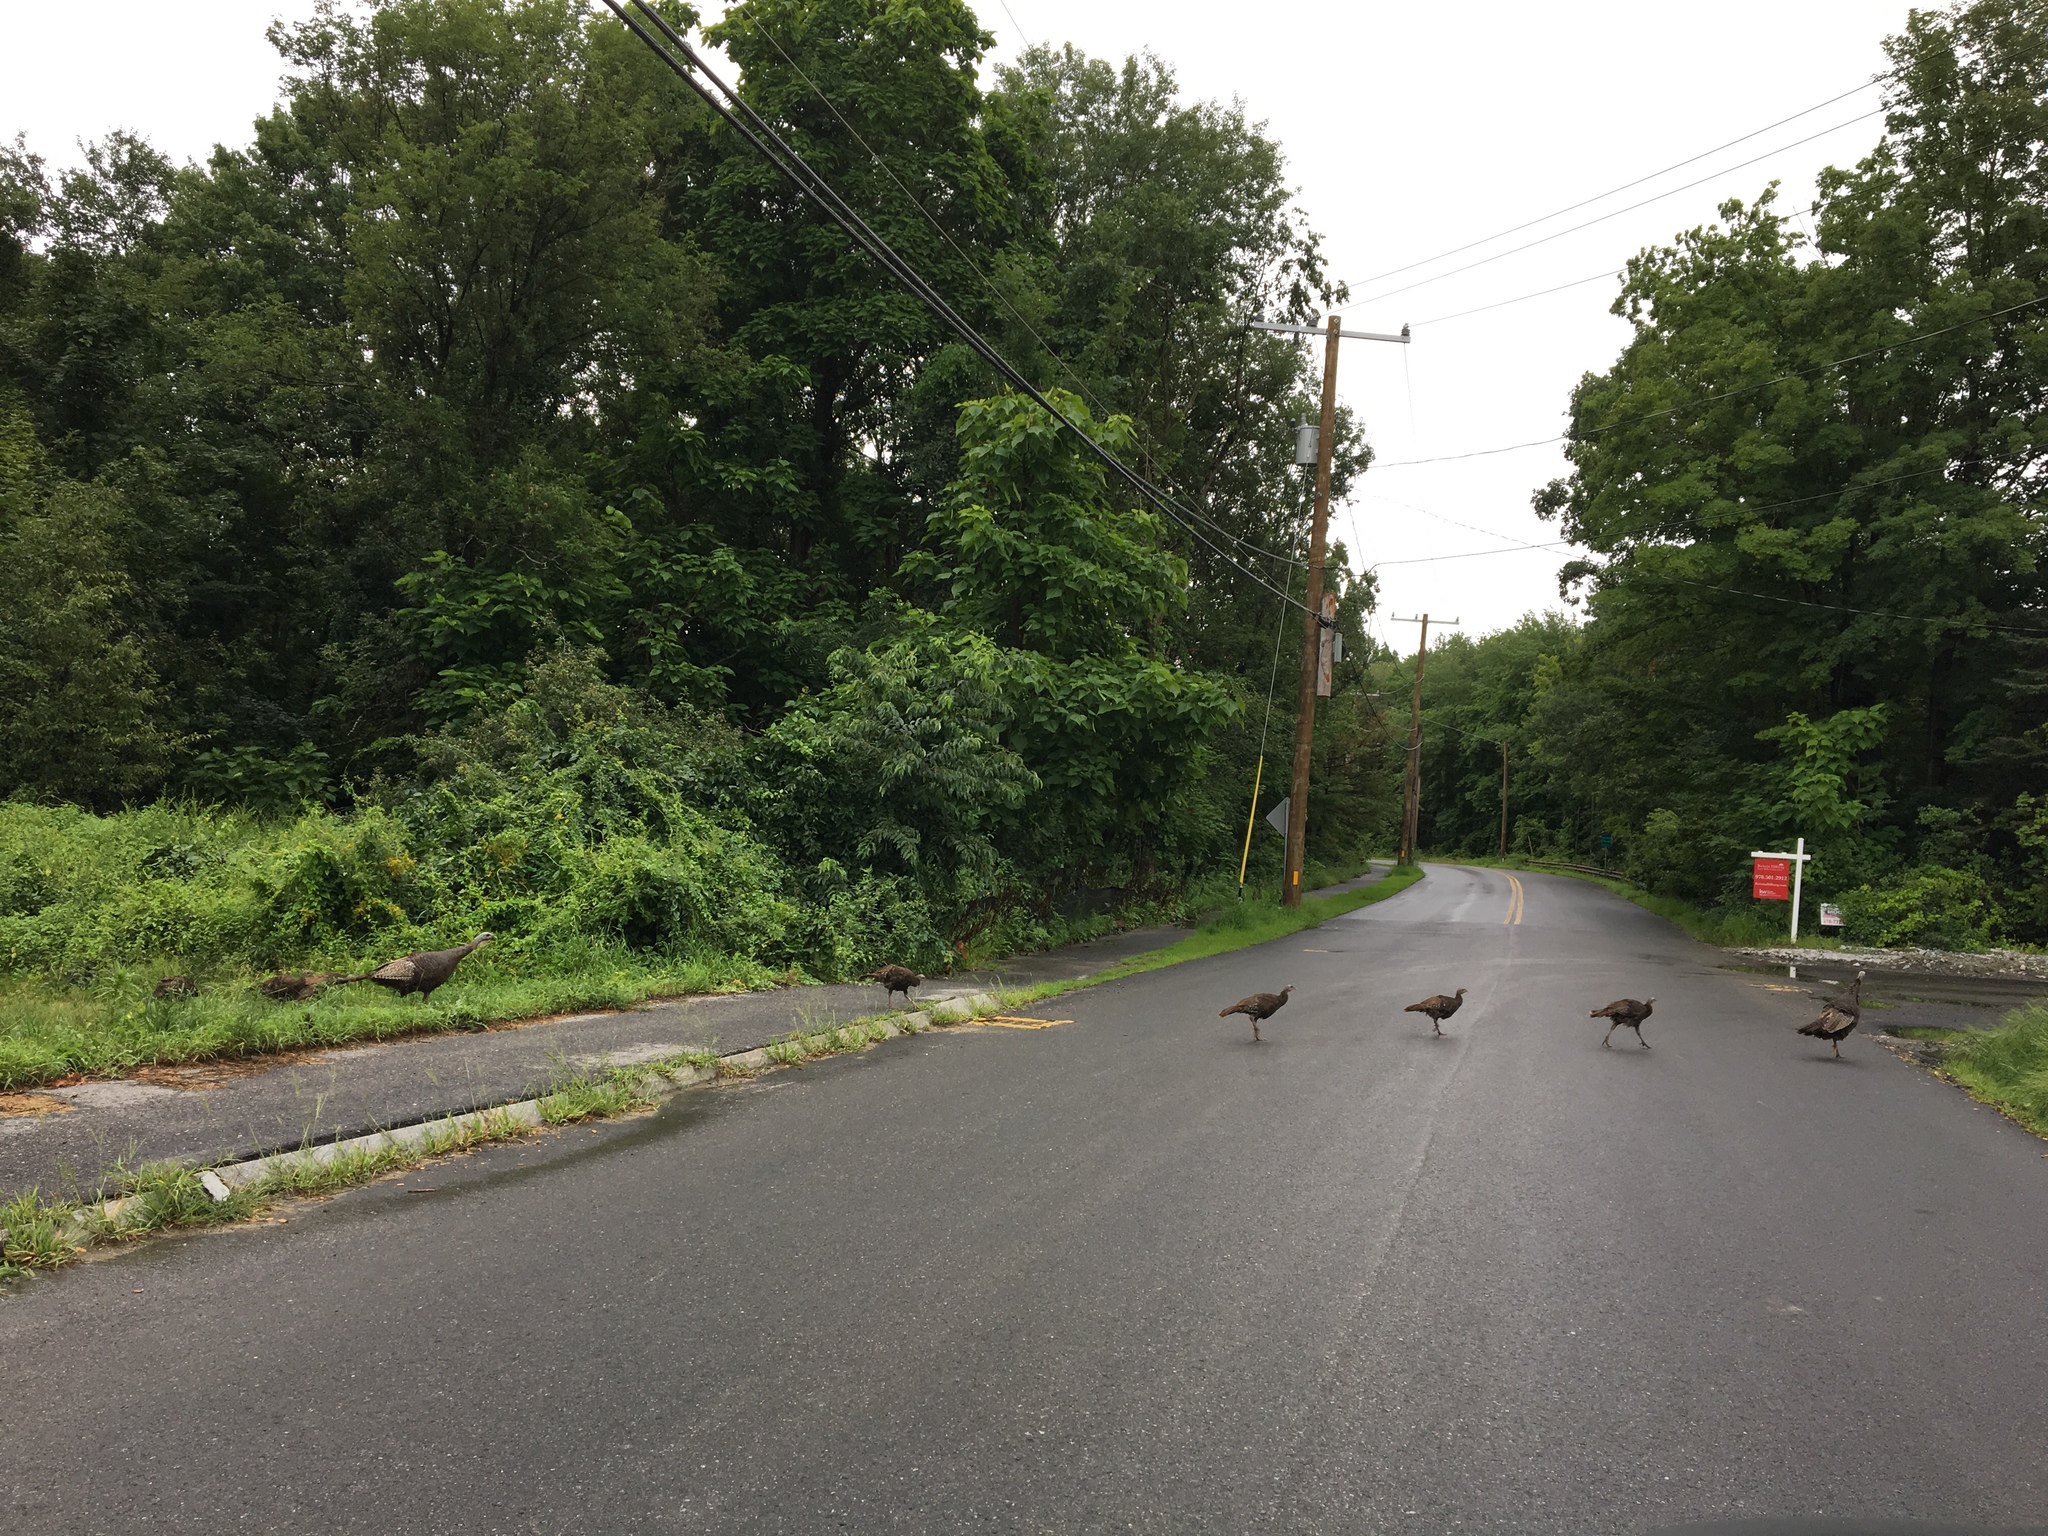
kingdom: Animalia
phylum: Chordata
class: Aves
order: Galliformes
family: Phasianidae
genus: Meleagris
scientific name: Meleagris gallopavo
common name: Wild turkey
